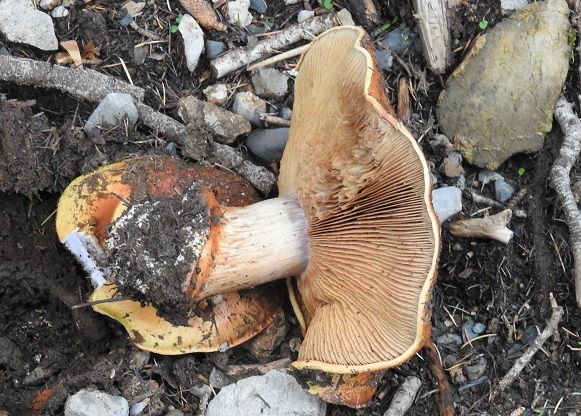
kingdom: Fungi
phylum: Basidiomycota
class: Agaricomycetes
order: Agaricales
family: Cortinariaceae
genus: Cortinarius
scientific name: Cortinarius bergeronii
